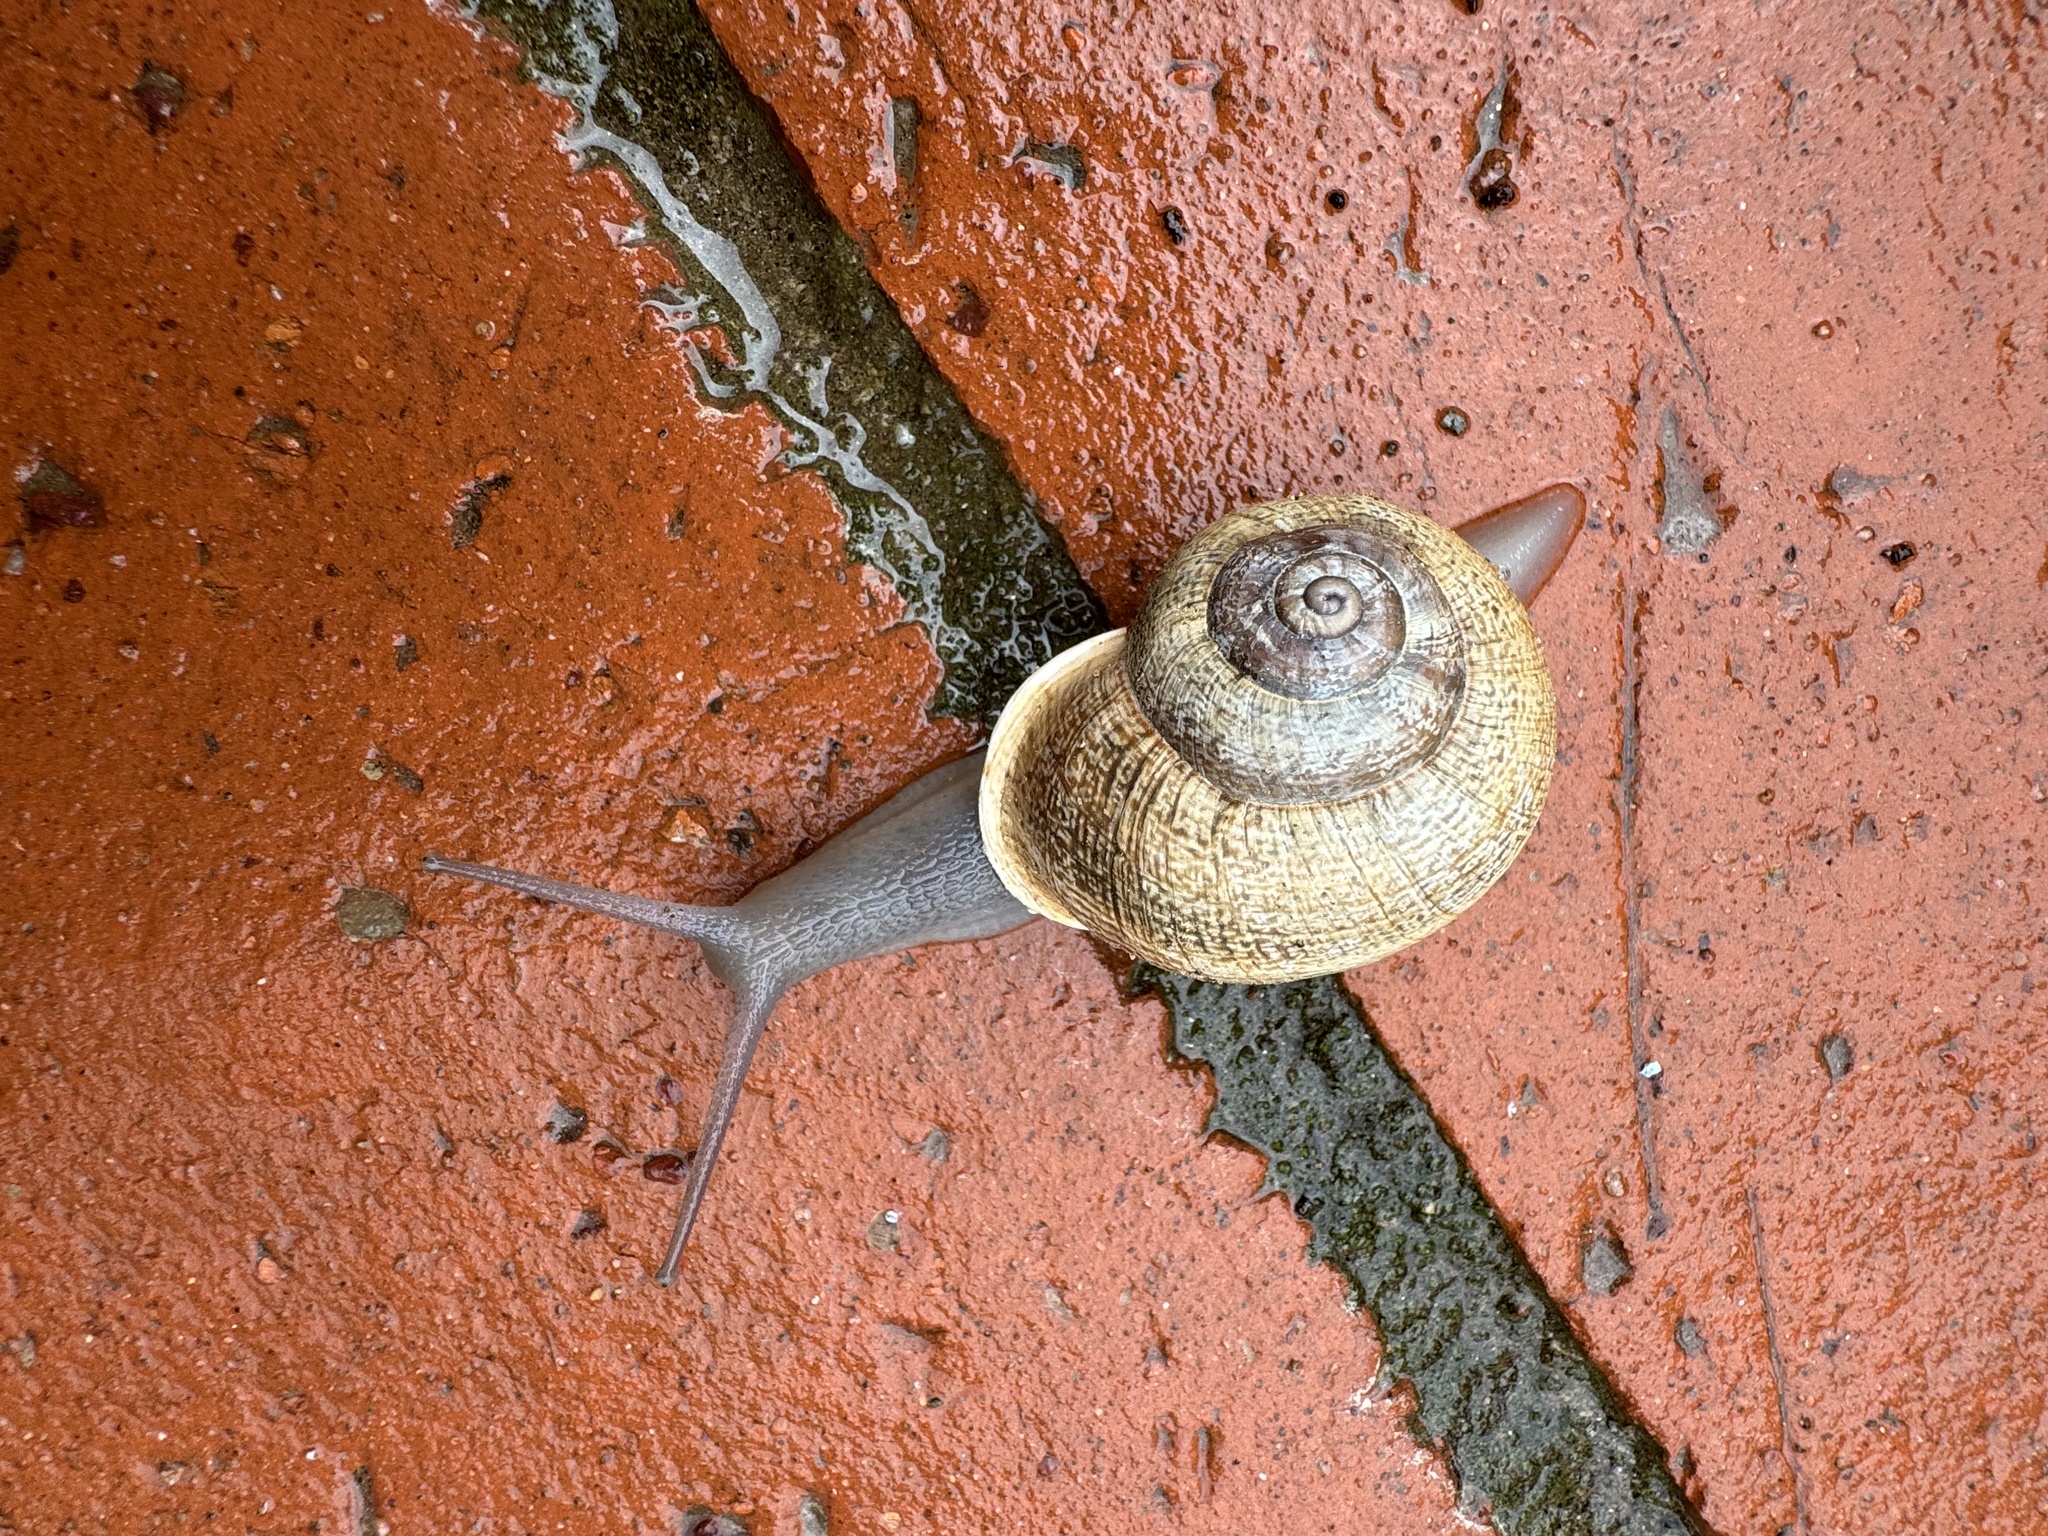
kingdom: Animalia
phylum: Mollusca
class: Gastropoda
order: Stylommatophora
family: Helicidae
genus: Otala
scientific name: Otala lactea
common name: Milk snail
